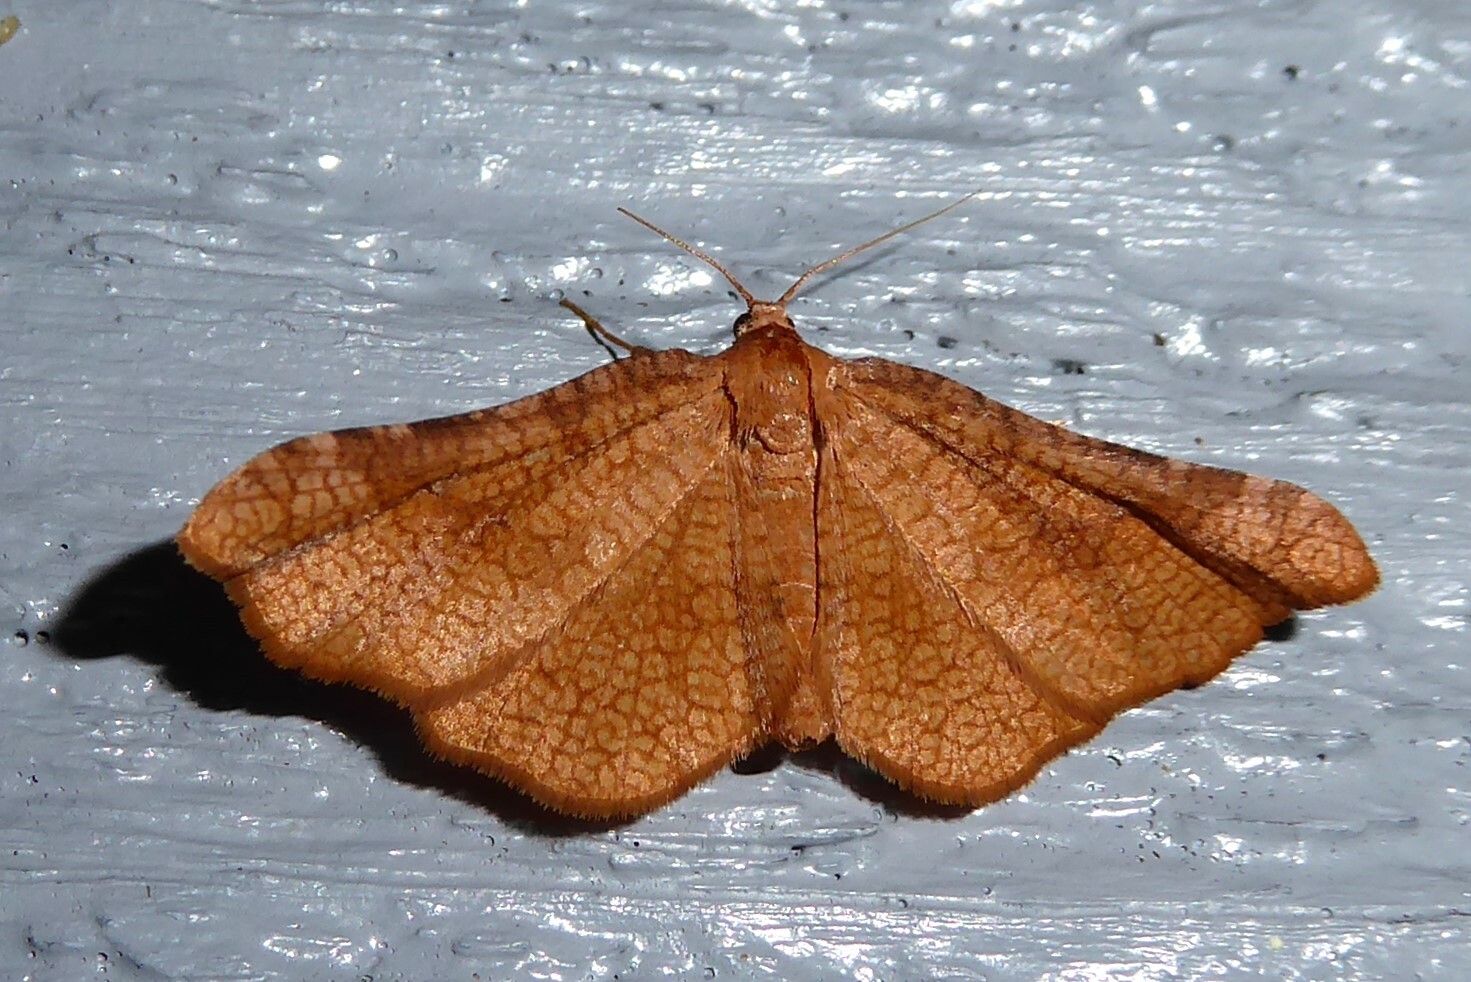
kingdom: Animalia
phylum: Arthropoda
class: Insecta
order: Lepidoptera
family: Thyrididae
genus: Morova
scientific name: Morova subfasciata
